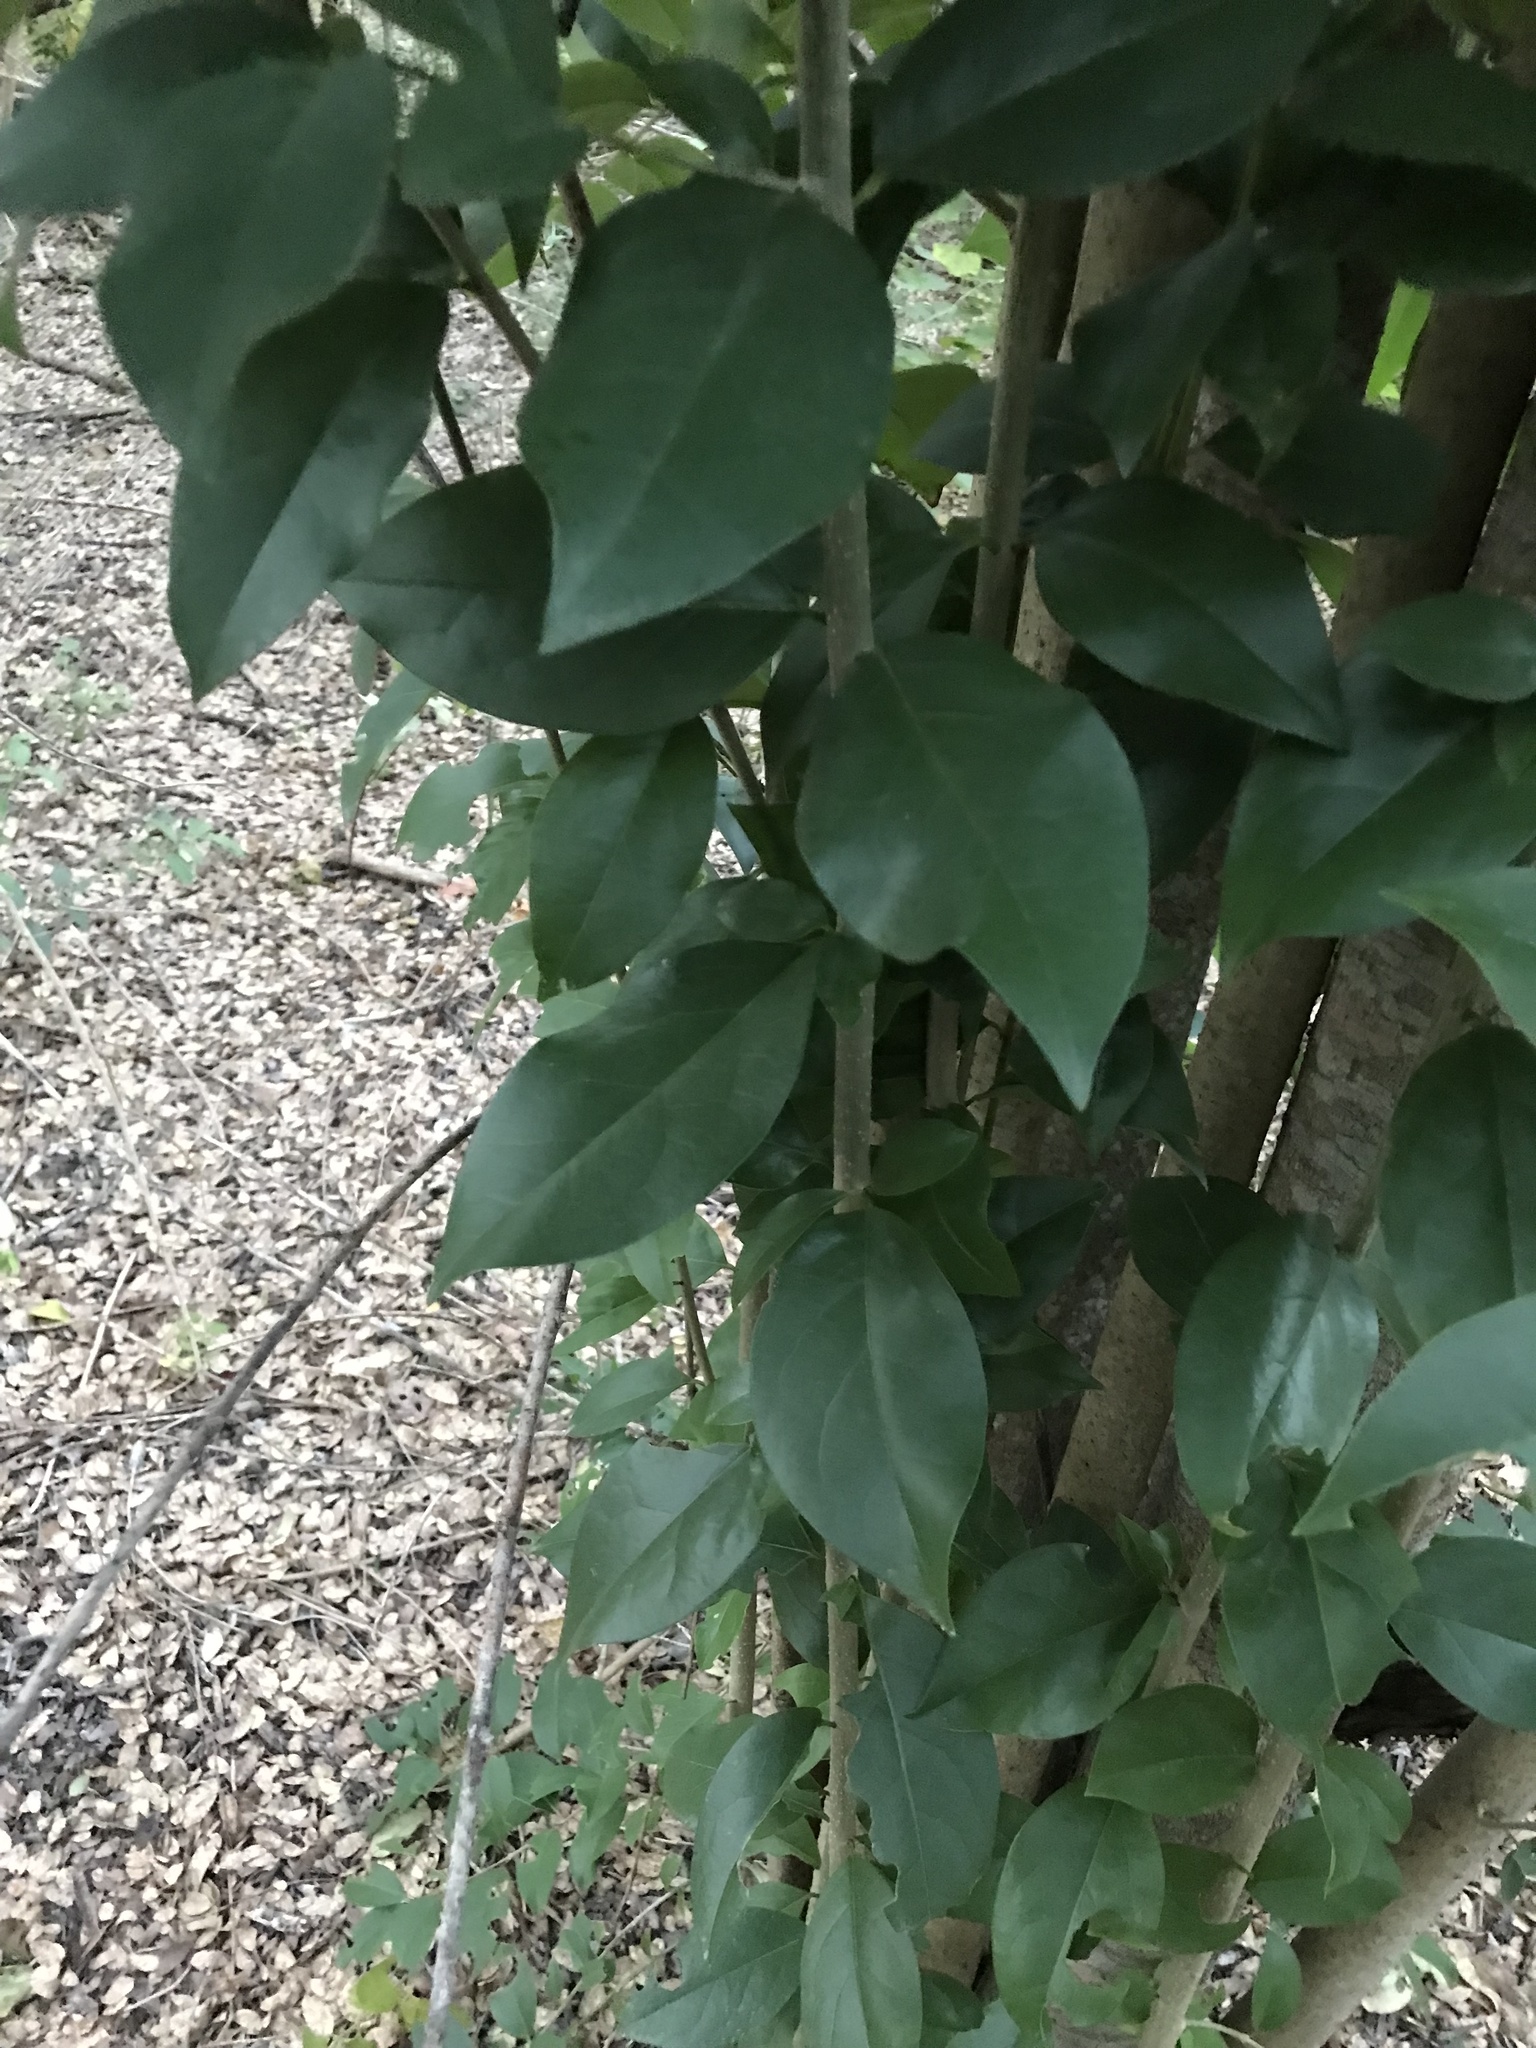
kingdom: Plantae
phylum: Tracheophyta
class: Magnoliopsida
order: Lamiales
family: Oleaceae
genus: Ligustrum
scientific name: Ligustrum lucidum
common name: Glossy privet
